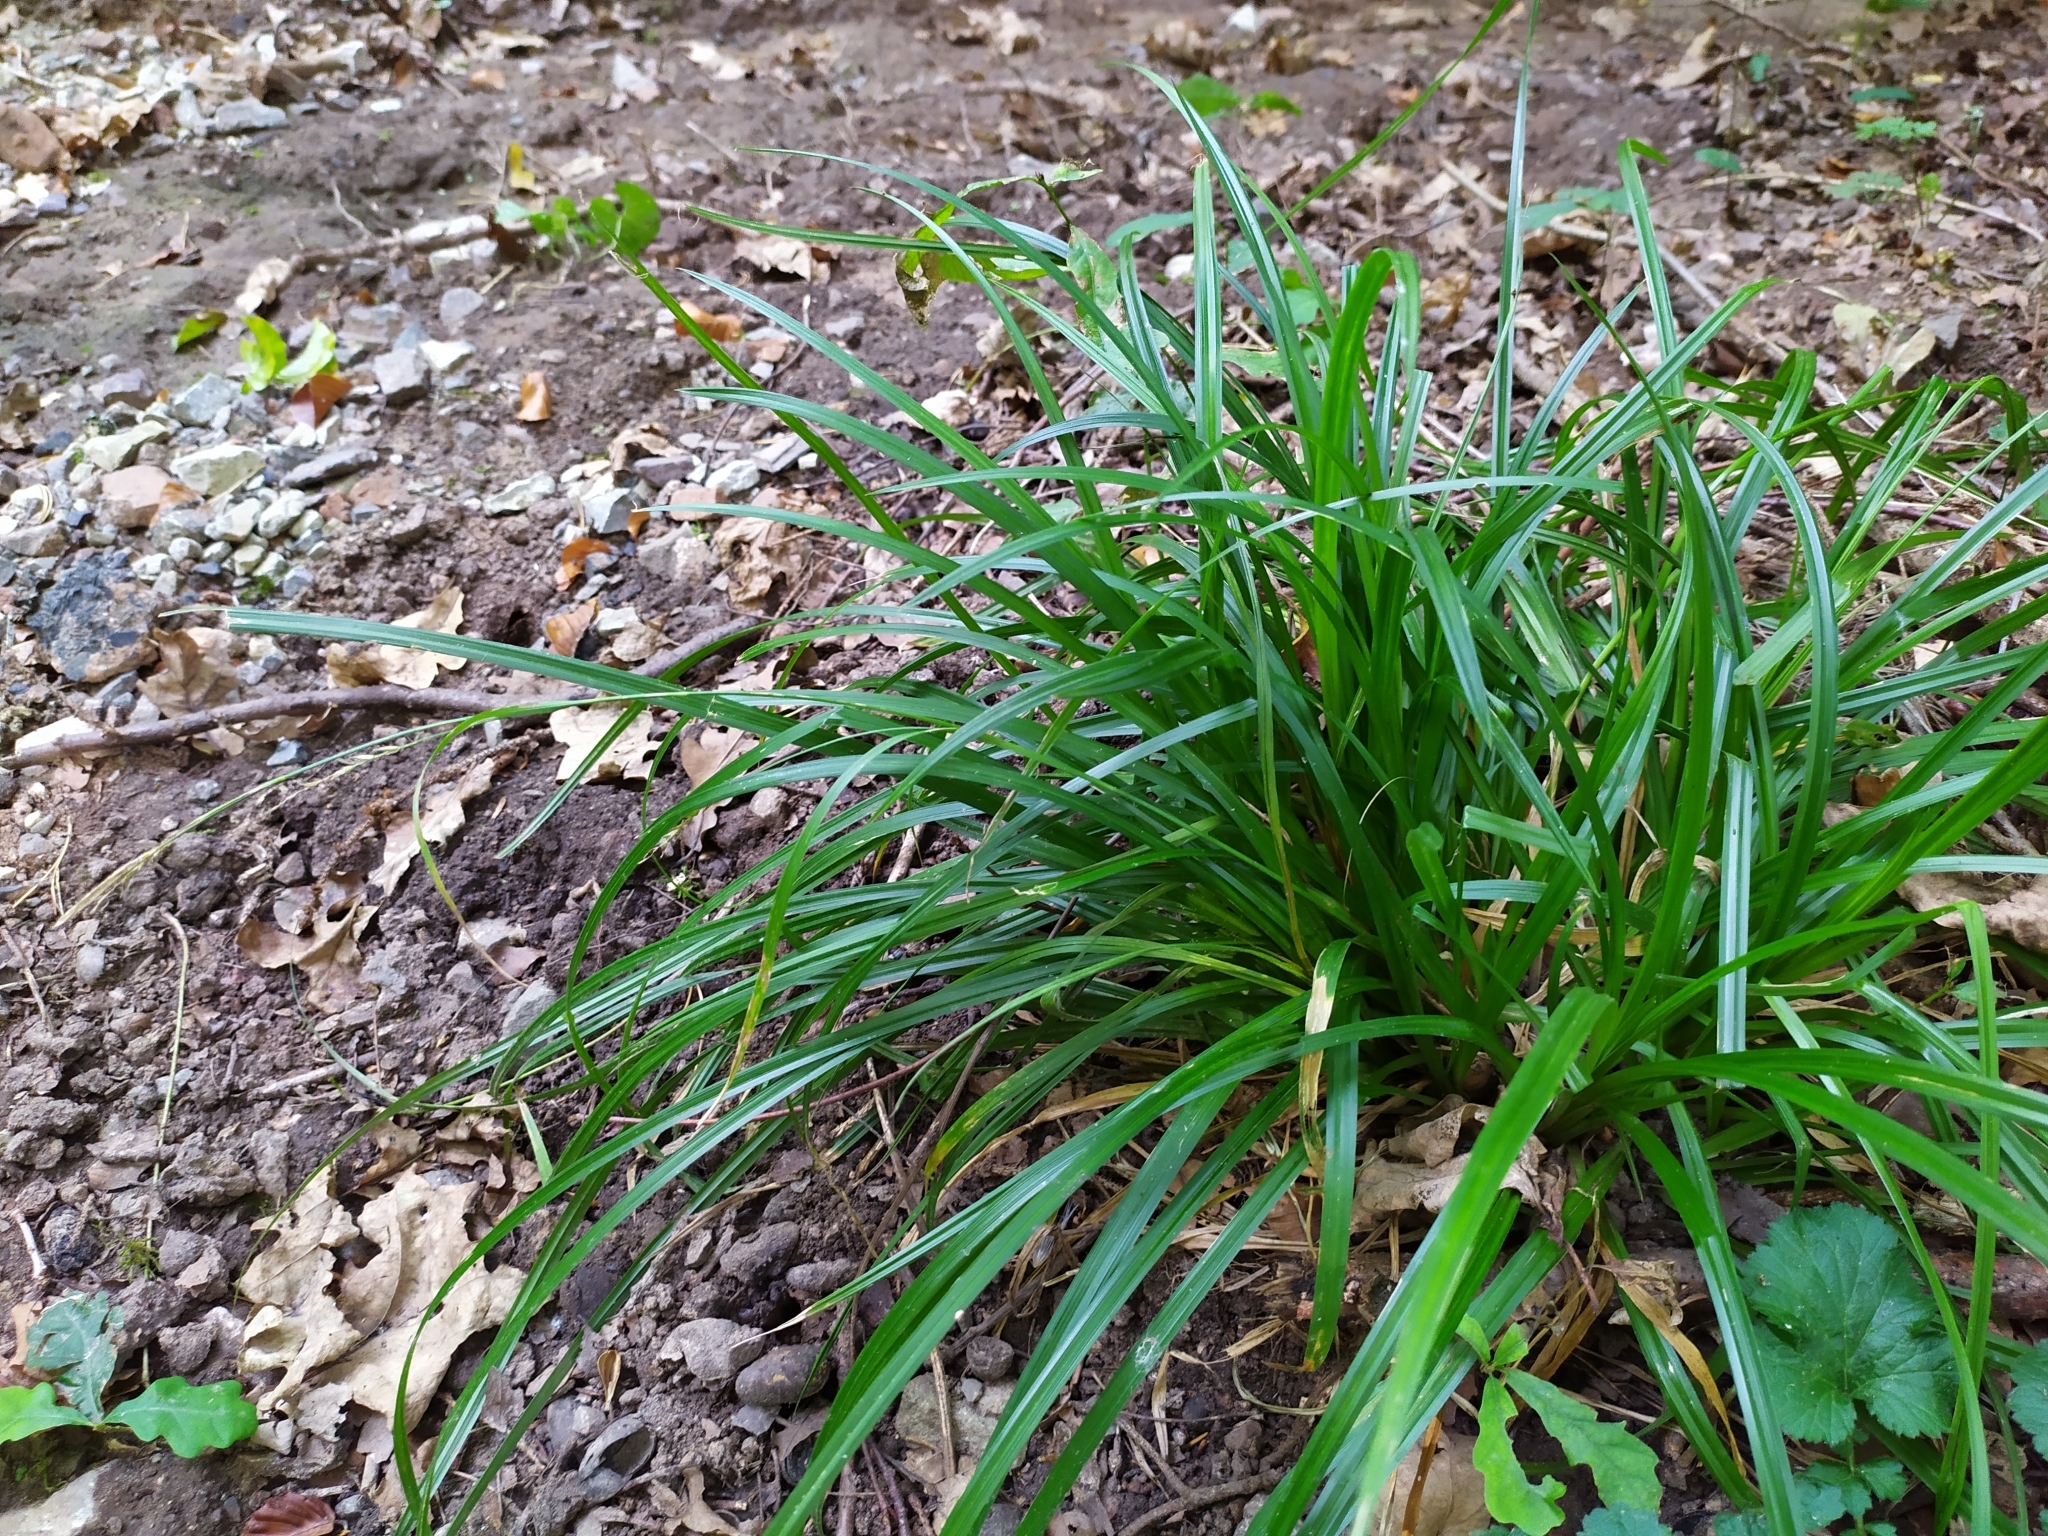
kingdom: Plantae
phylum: Tracheophyta
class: Liliopsida
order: Poales
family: Cyperaceae
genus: Carex
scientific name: Carex sylvatica
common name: Wood-sedge
